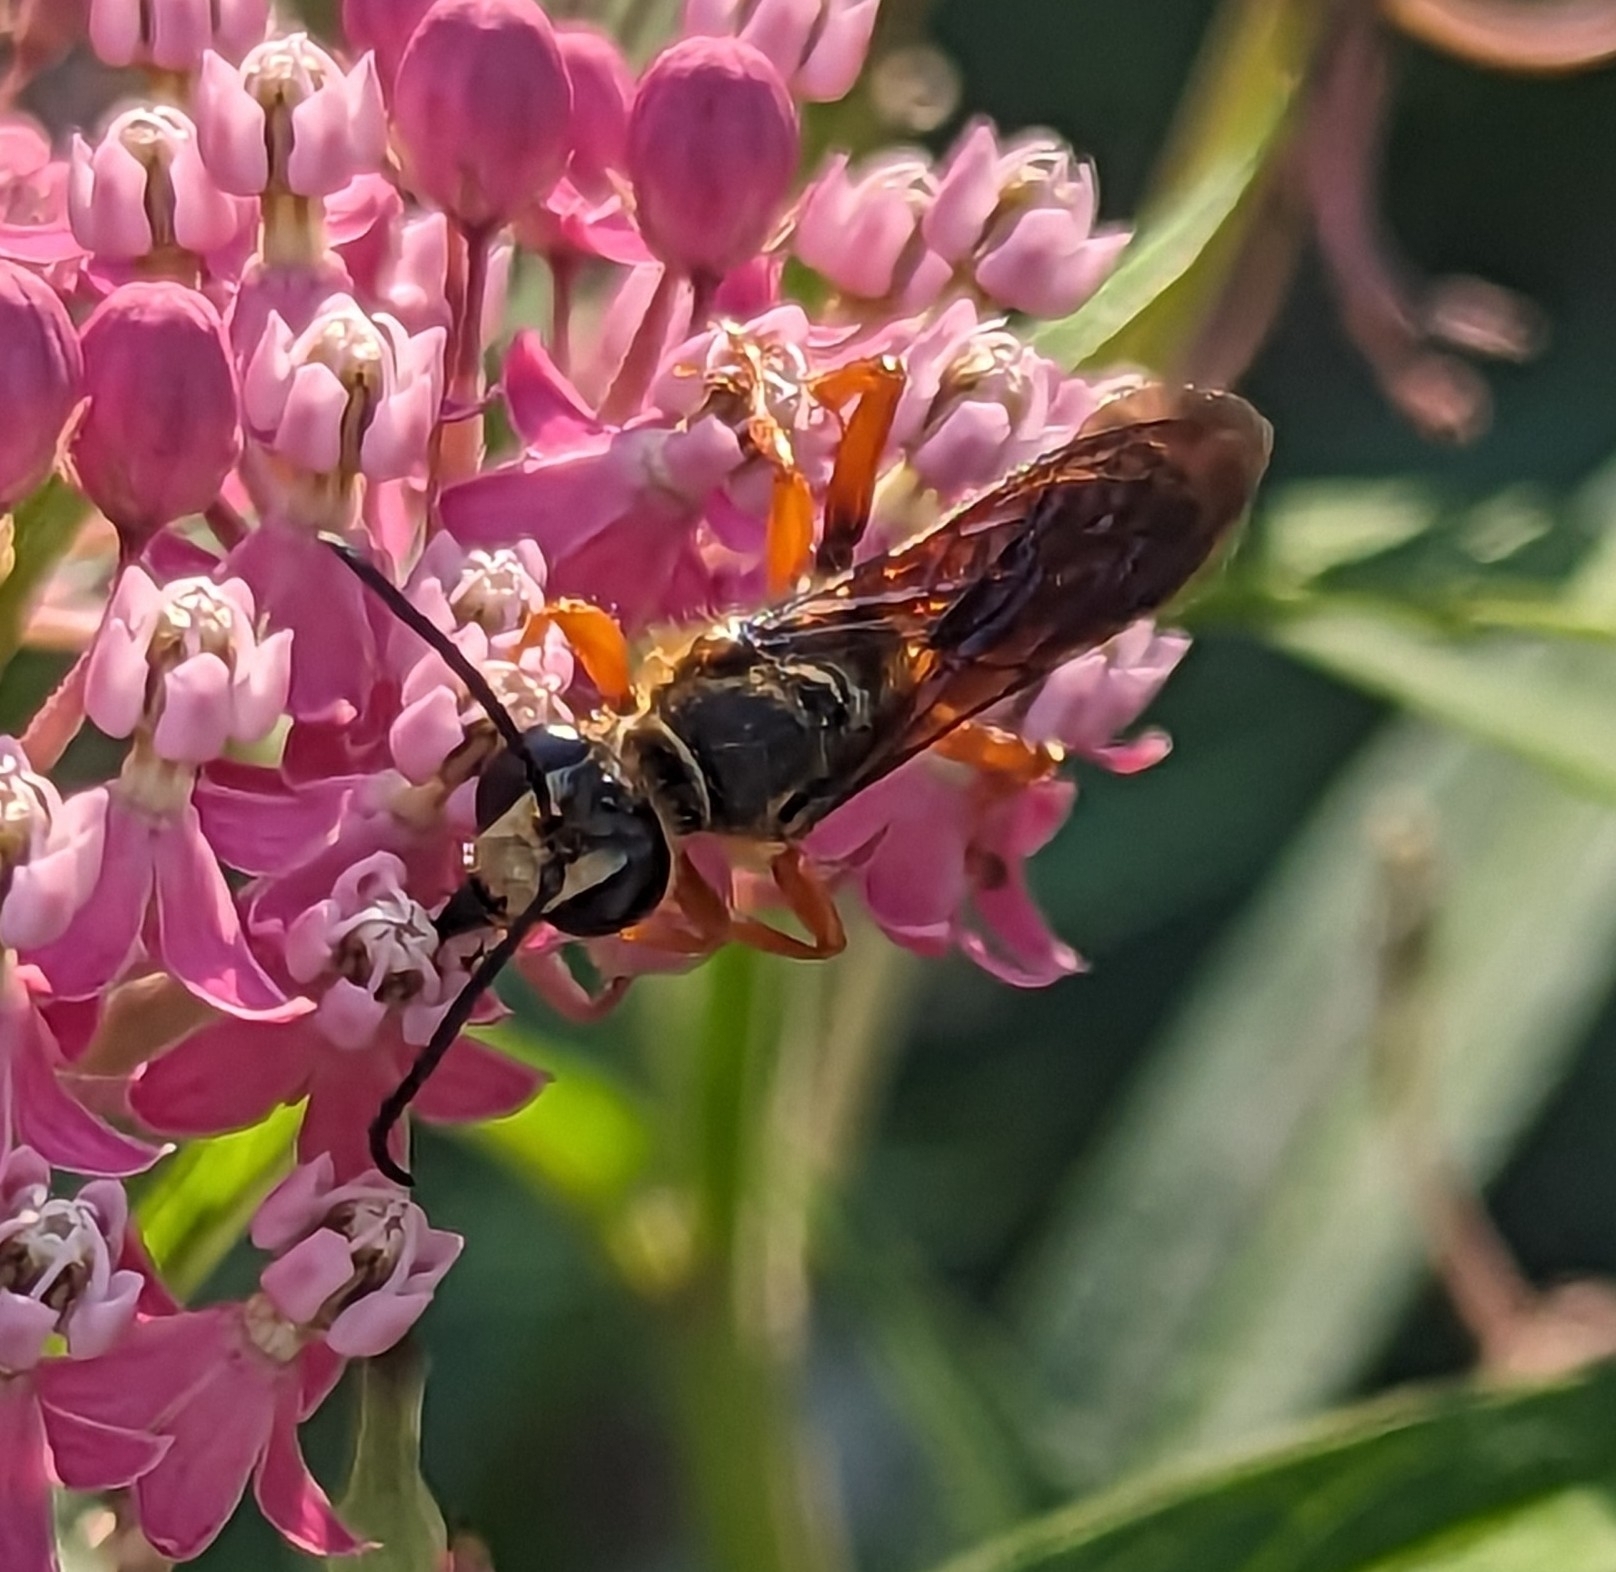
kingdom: Animalia
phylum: Arthropoda
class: Insecta
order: Hymenoptera
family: Sphecidae
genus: Sphex
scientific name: Sphex ichneumoneus
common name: Great golden digger wasp
